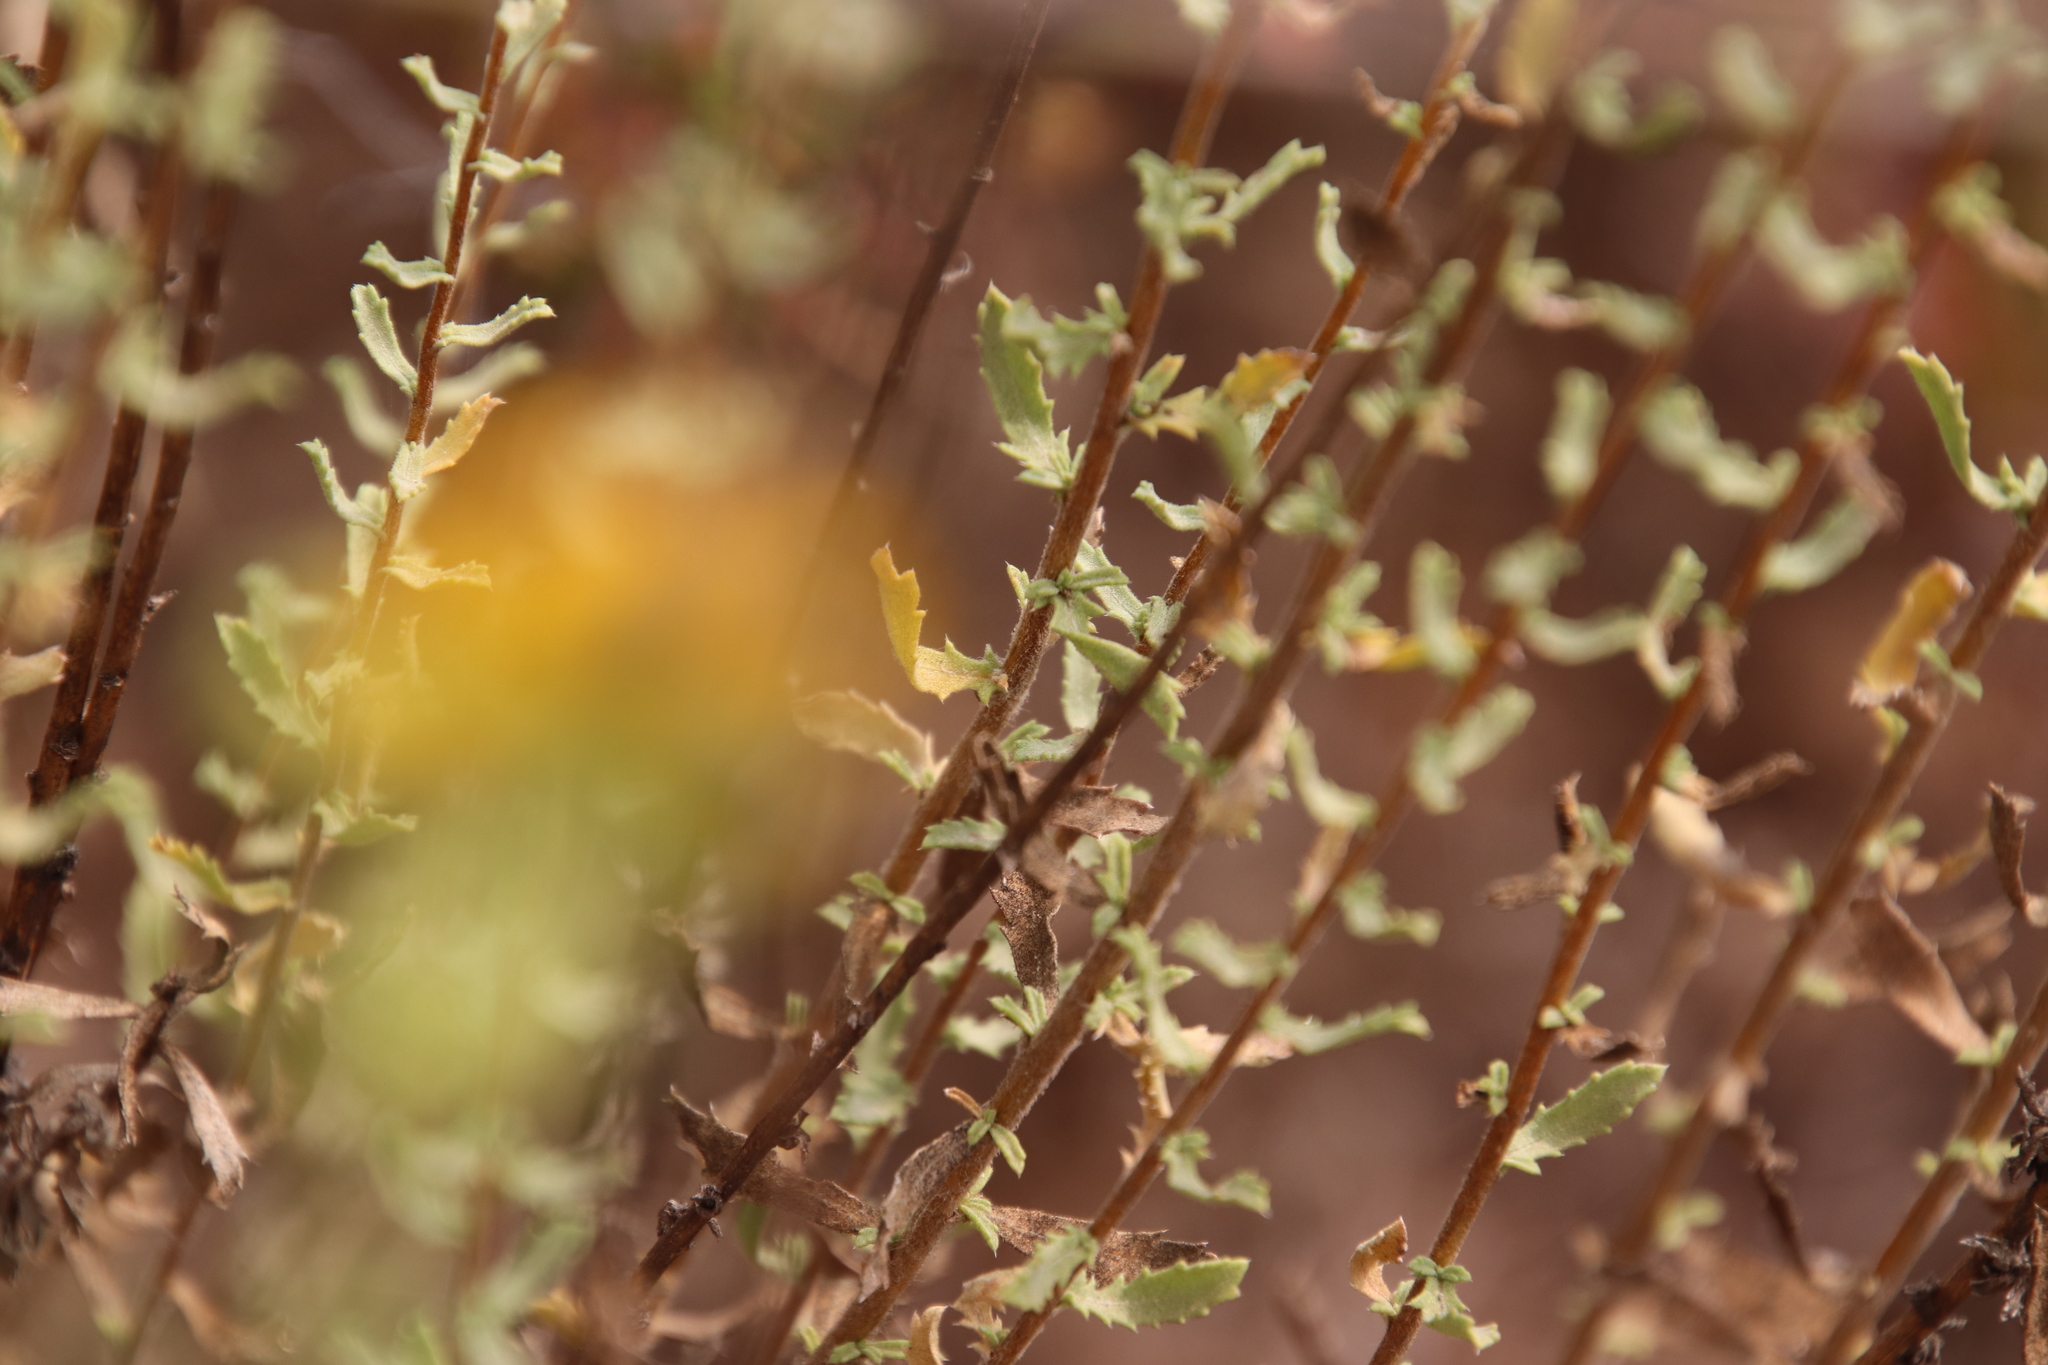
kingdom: Plantae
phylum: Tracheophyta
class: Magnoliopsida
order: Asterales
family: Asteraceae
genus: Isocoma
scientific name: Isocoma menziesii
